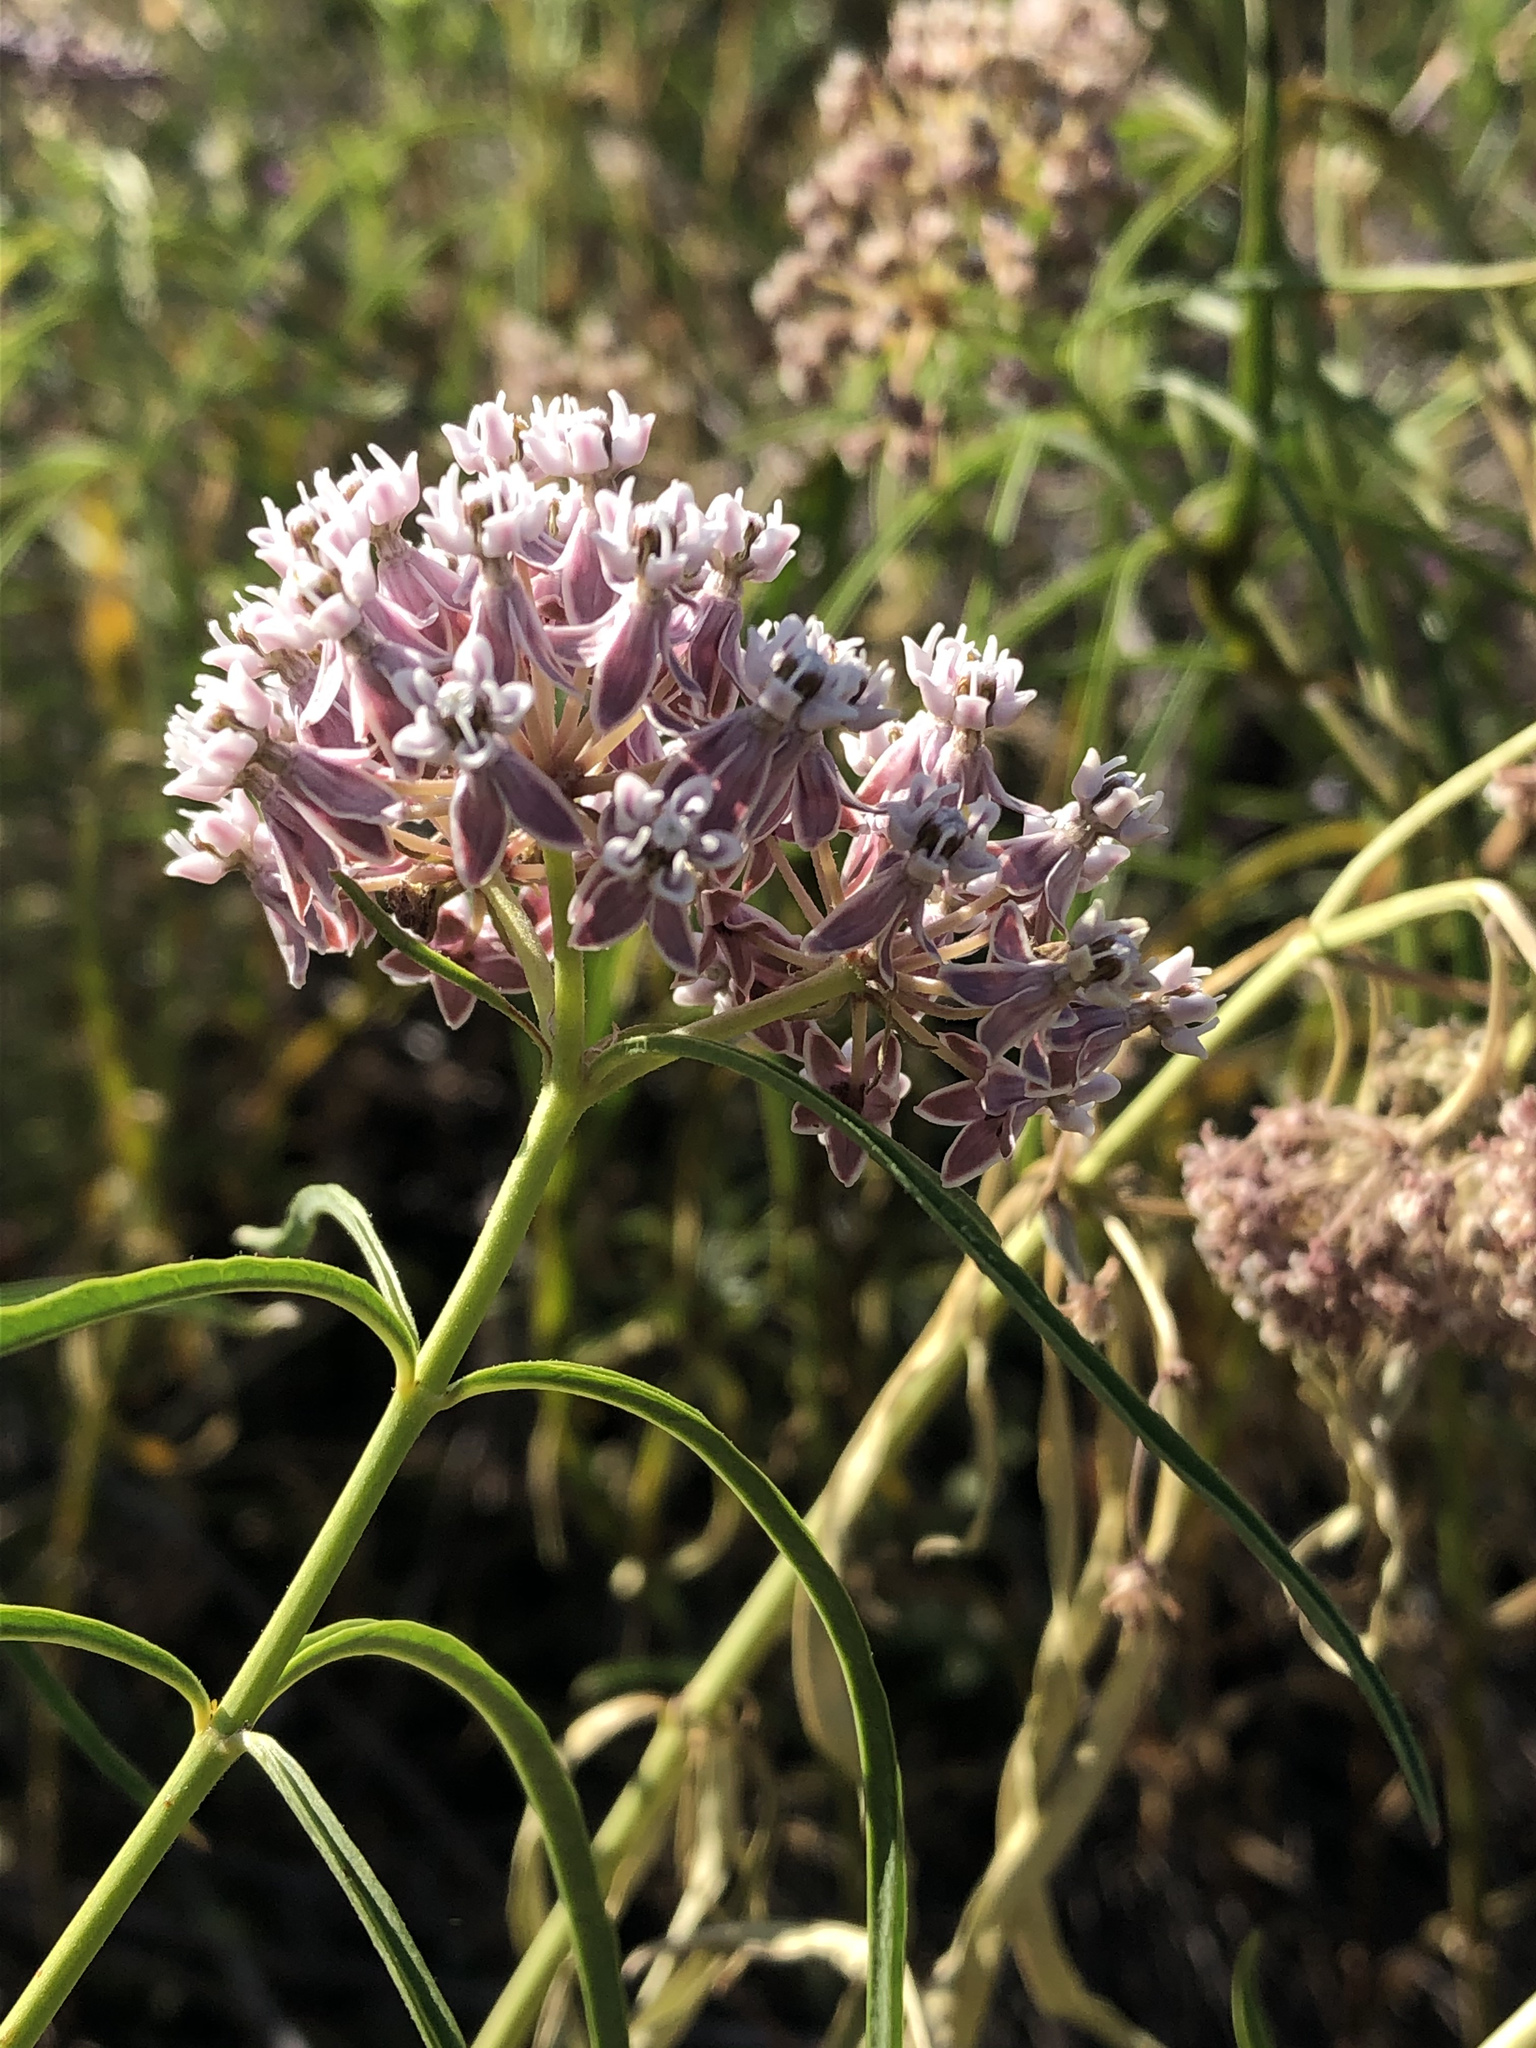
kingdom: Plantae
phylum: Tracheophyta
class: Magnoliopsida
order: Gentianales
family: Apocynaceae
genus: Asclepias
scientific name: Asclepias fascicularis
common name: Mexican milkweed
